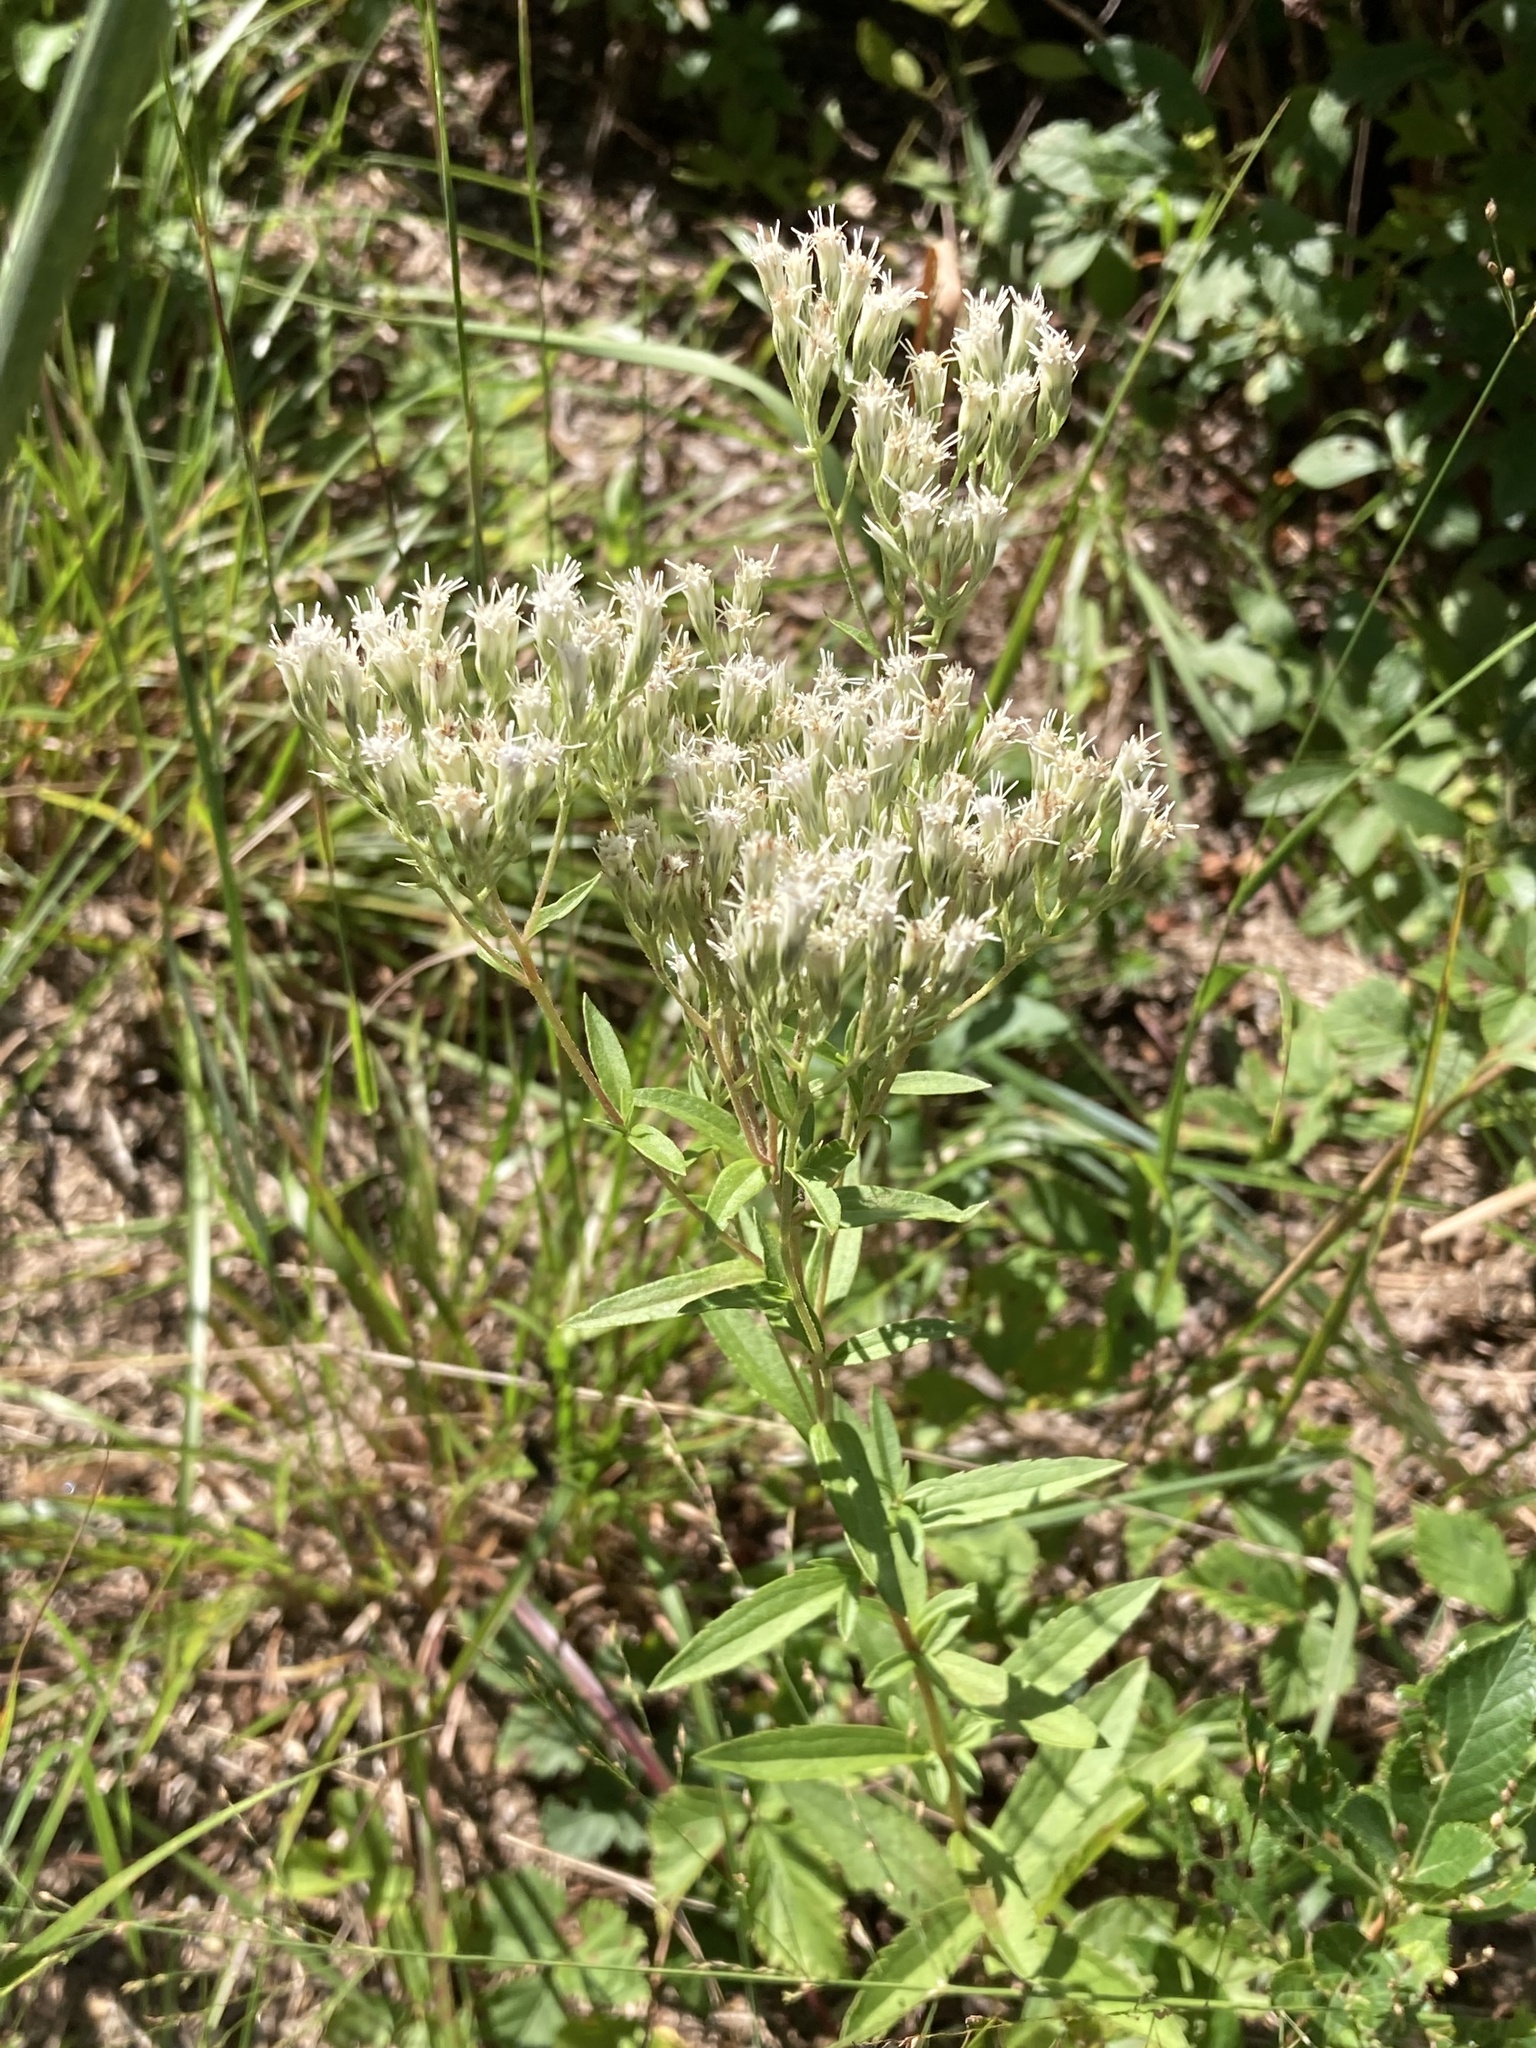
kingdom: Plantae
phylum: Tracheophyta
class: Magnoliopsida
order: Asterales
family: Asteraceae
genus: Eupatorium
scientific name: Eupatorium subvenosum
